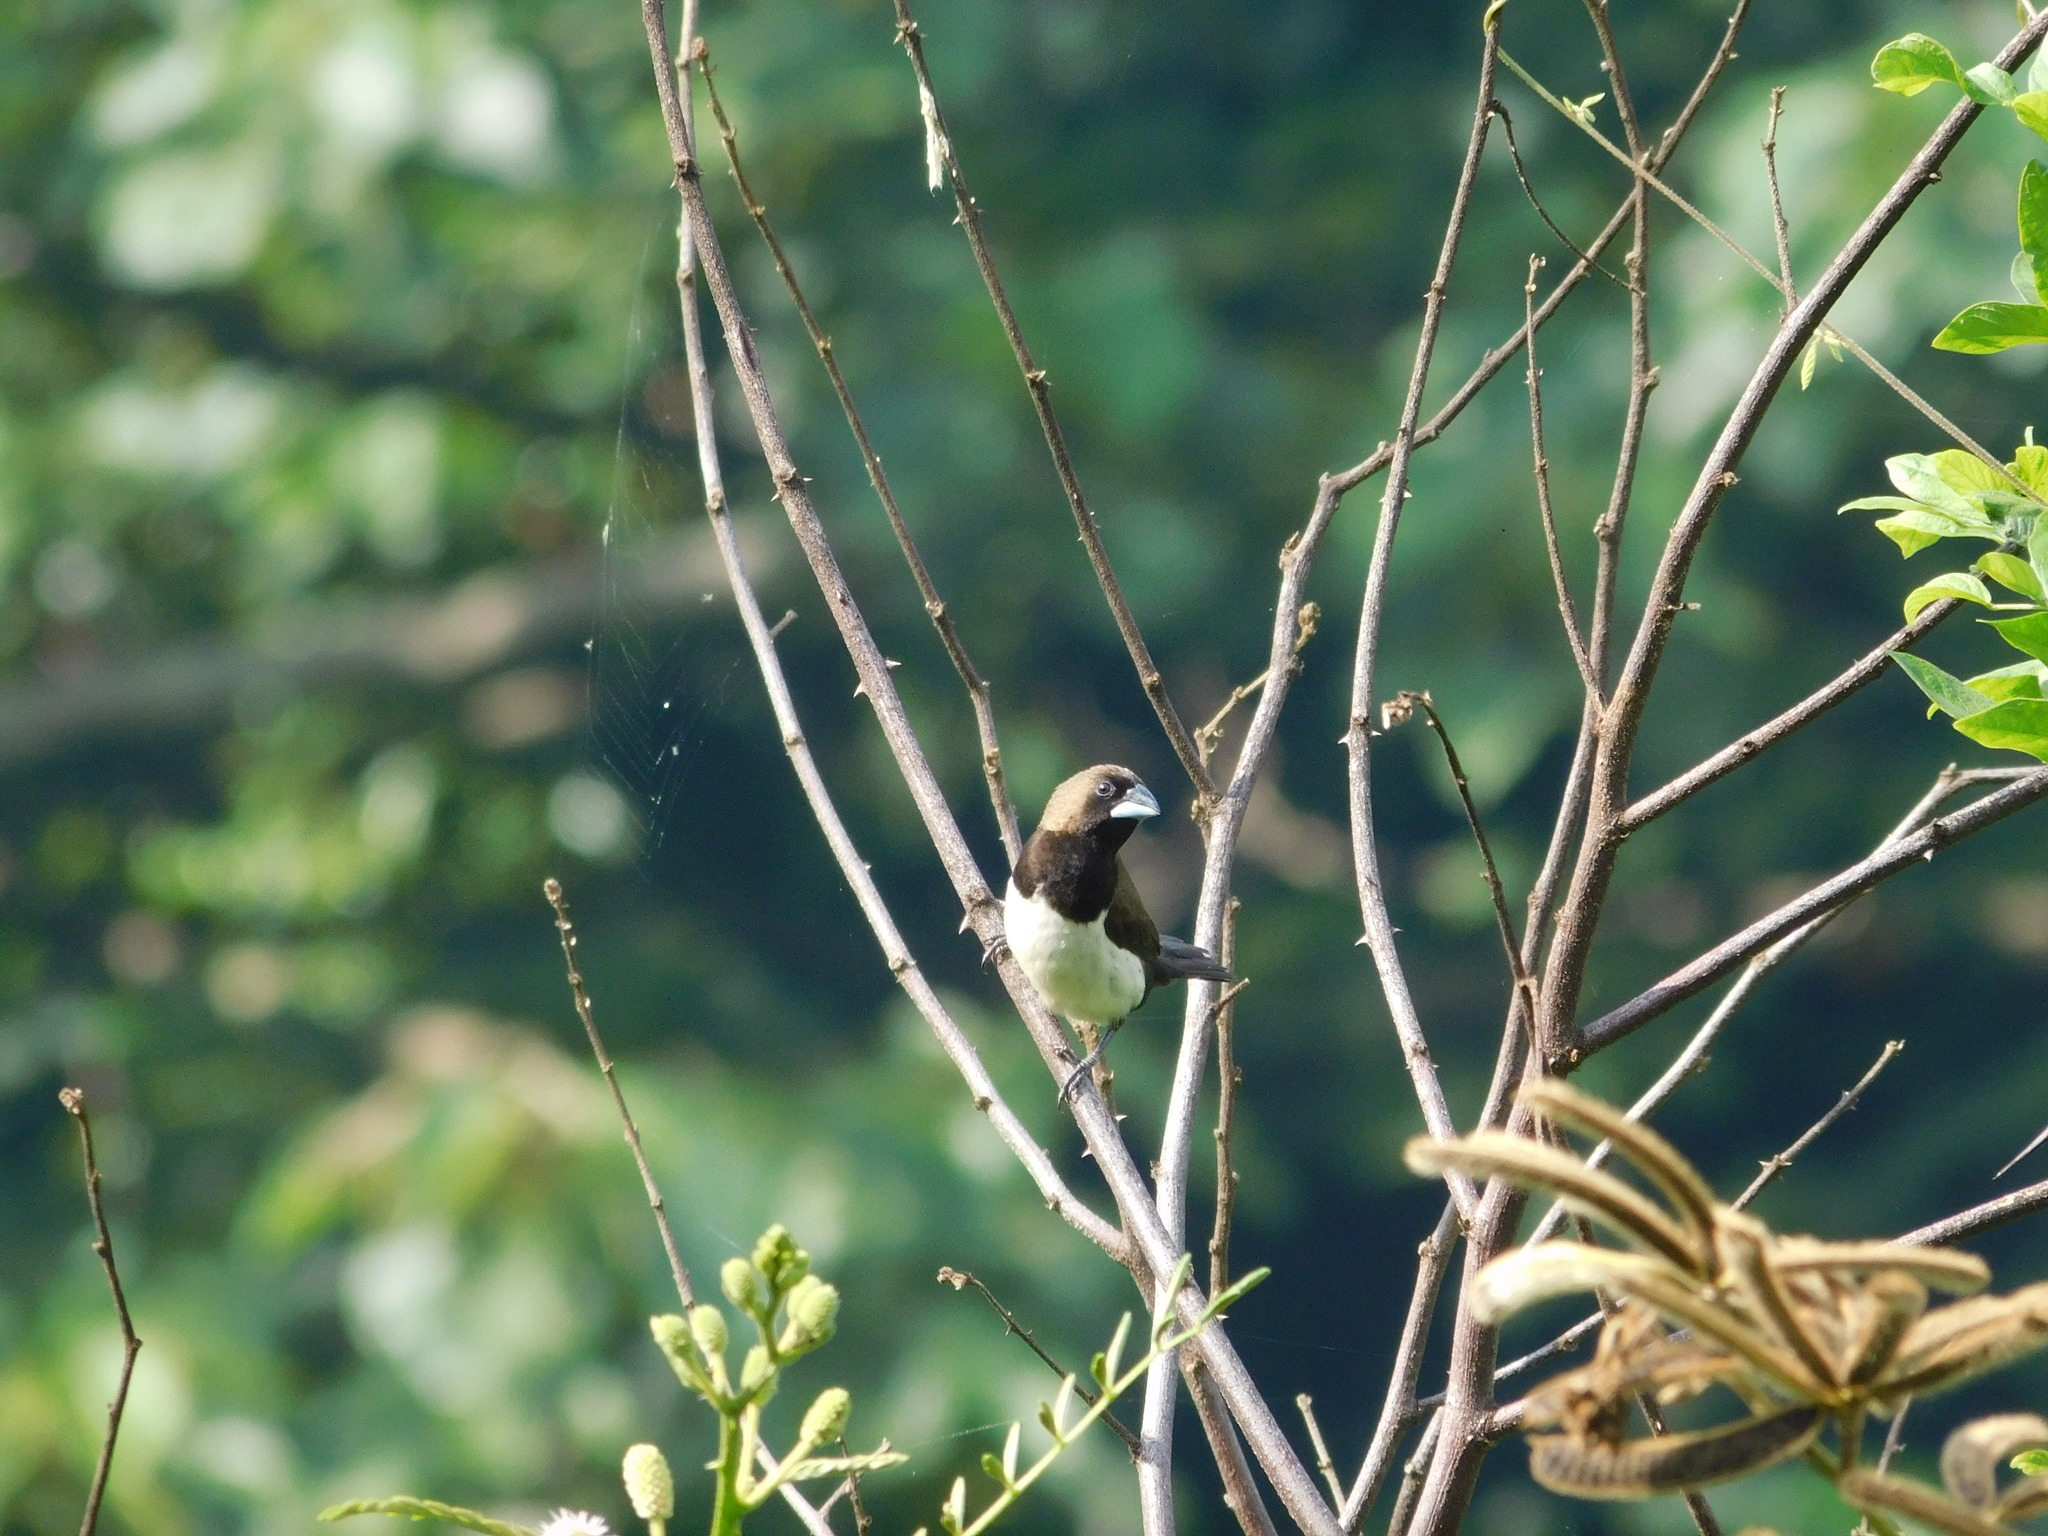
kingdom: Animalia
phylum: Chordata
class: Aves
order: Passeriformes
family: Estrildidae
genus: Lonchura
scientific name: Lonchura leucogastroides
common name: Javan munia
